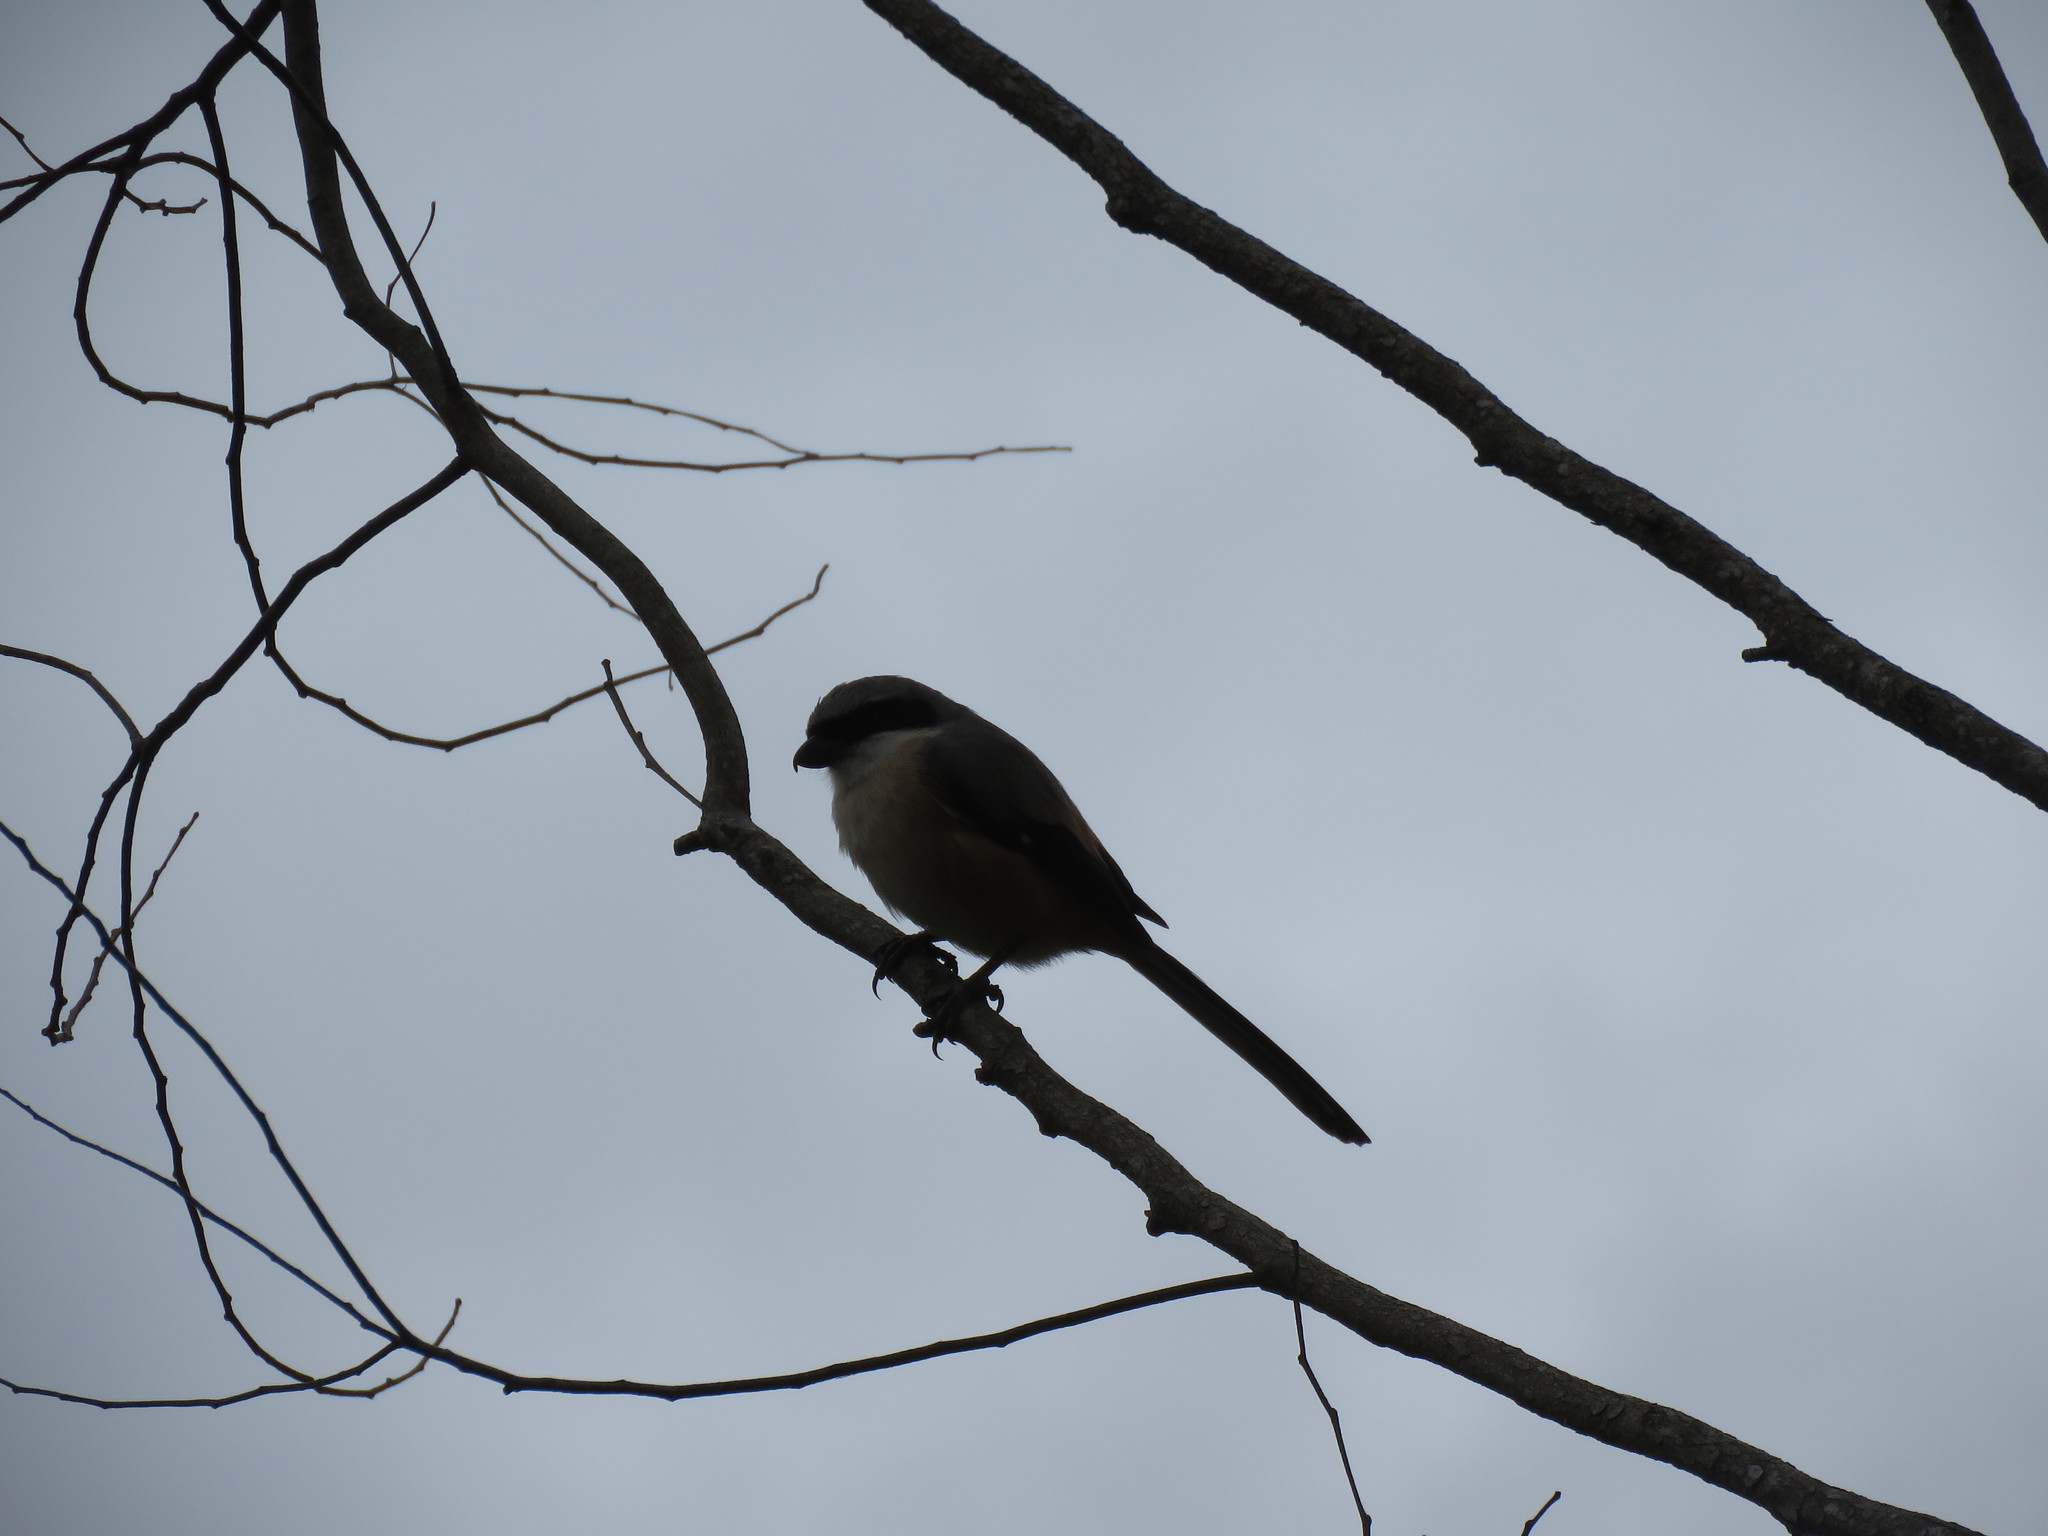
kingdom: Animalia
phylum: Chordata
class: Aves
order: Passeriformes
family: Laniidae
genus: Lanius
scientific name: Lanius schach
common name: Long-tailed shrike
